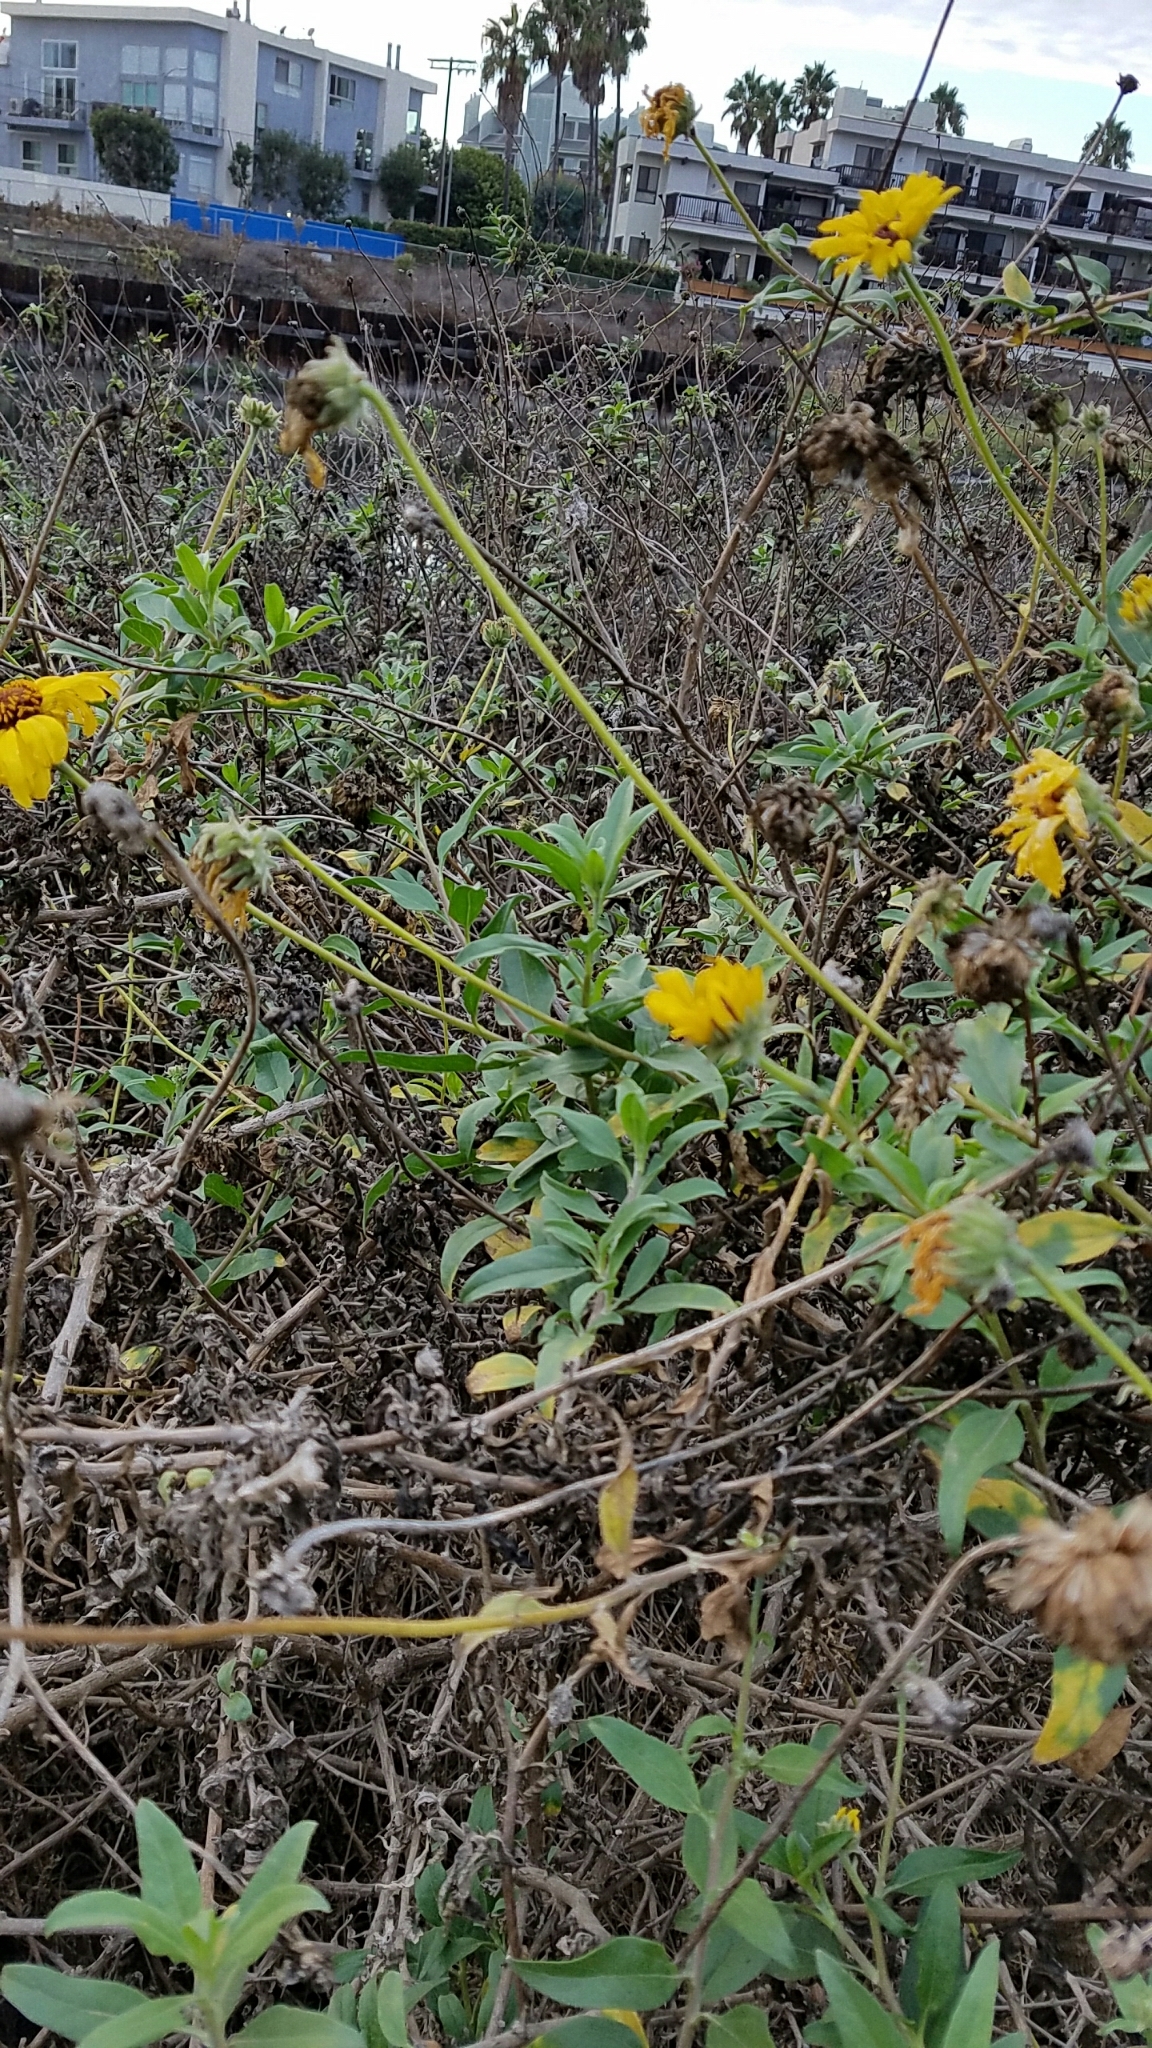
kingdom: Plantae
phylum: Tracheophyta
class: Magnoliopsida
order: Asterales
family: Asteraceae
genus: Encelia
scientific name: Encelia californica
